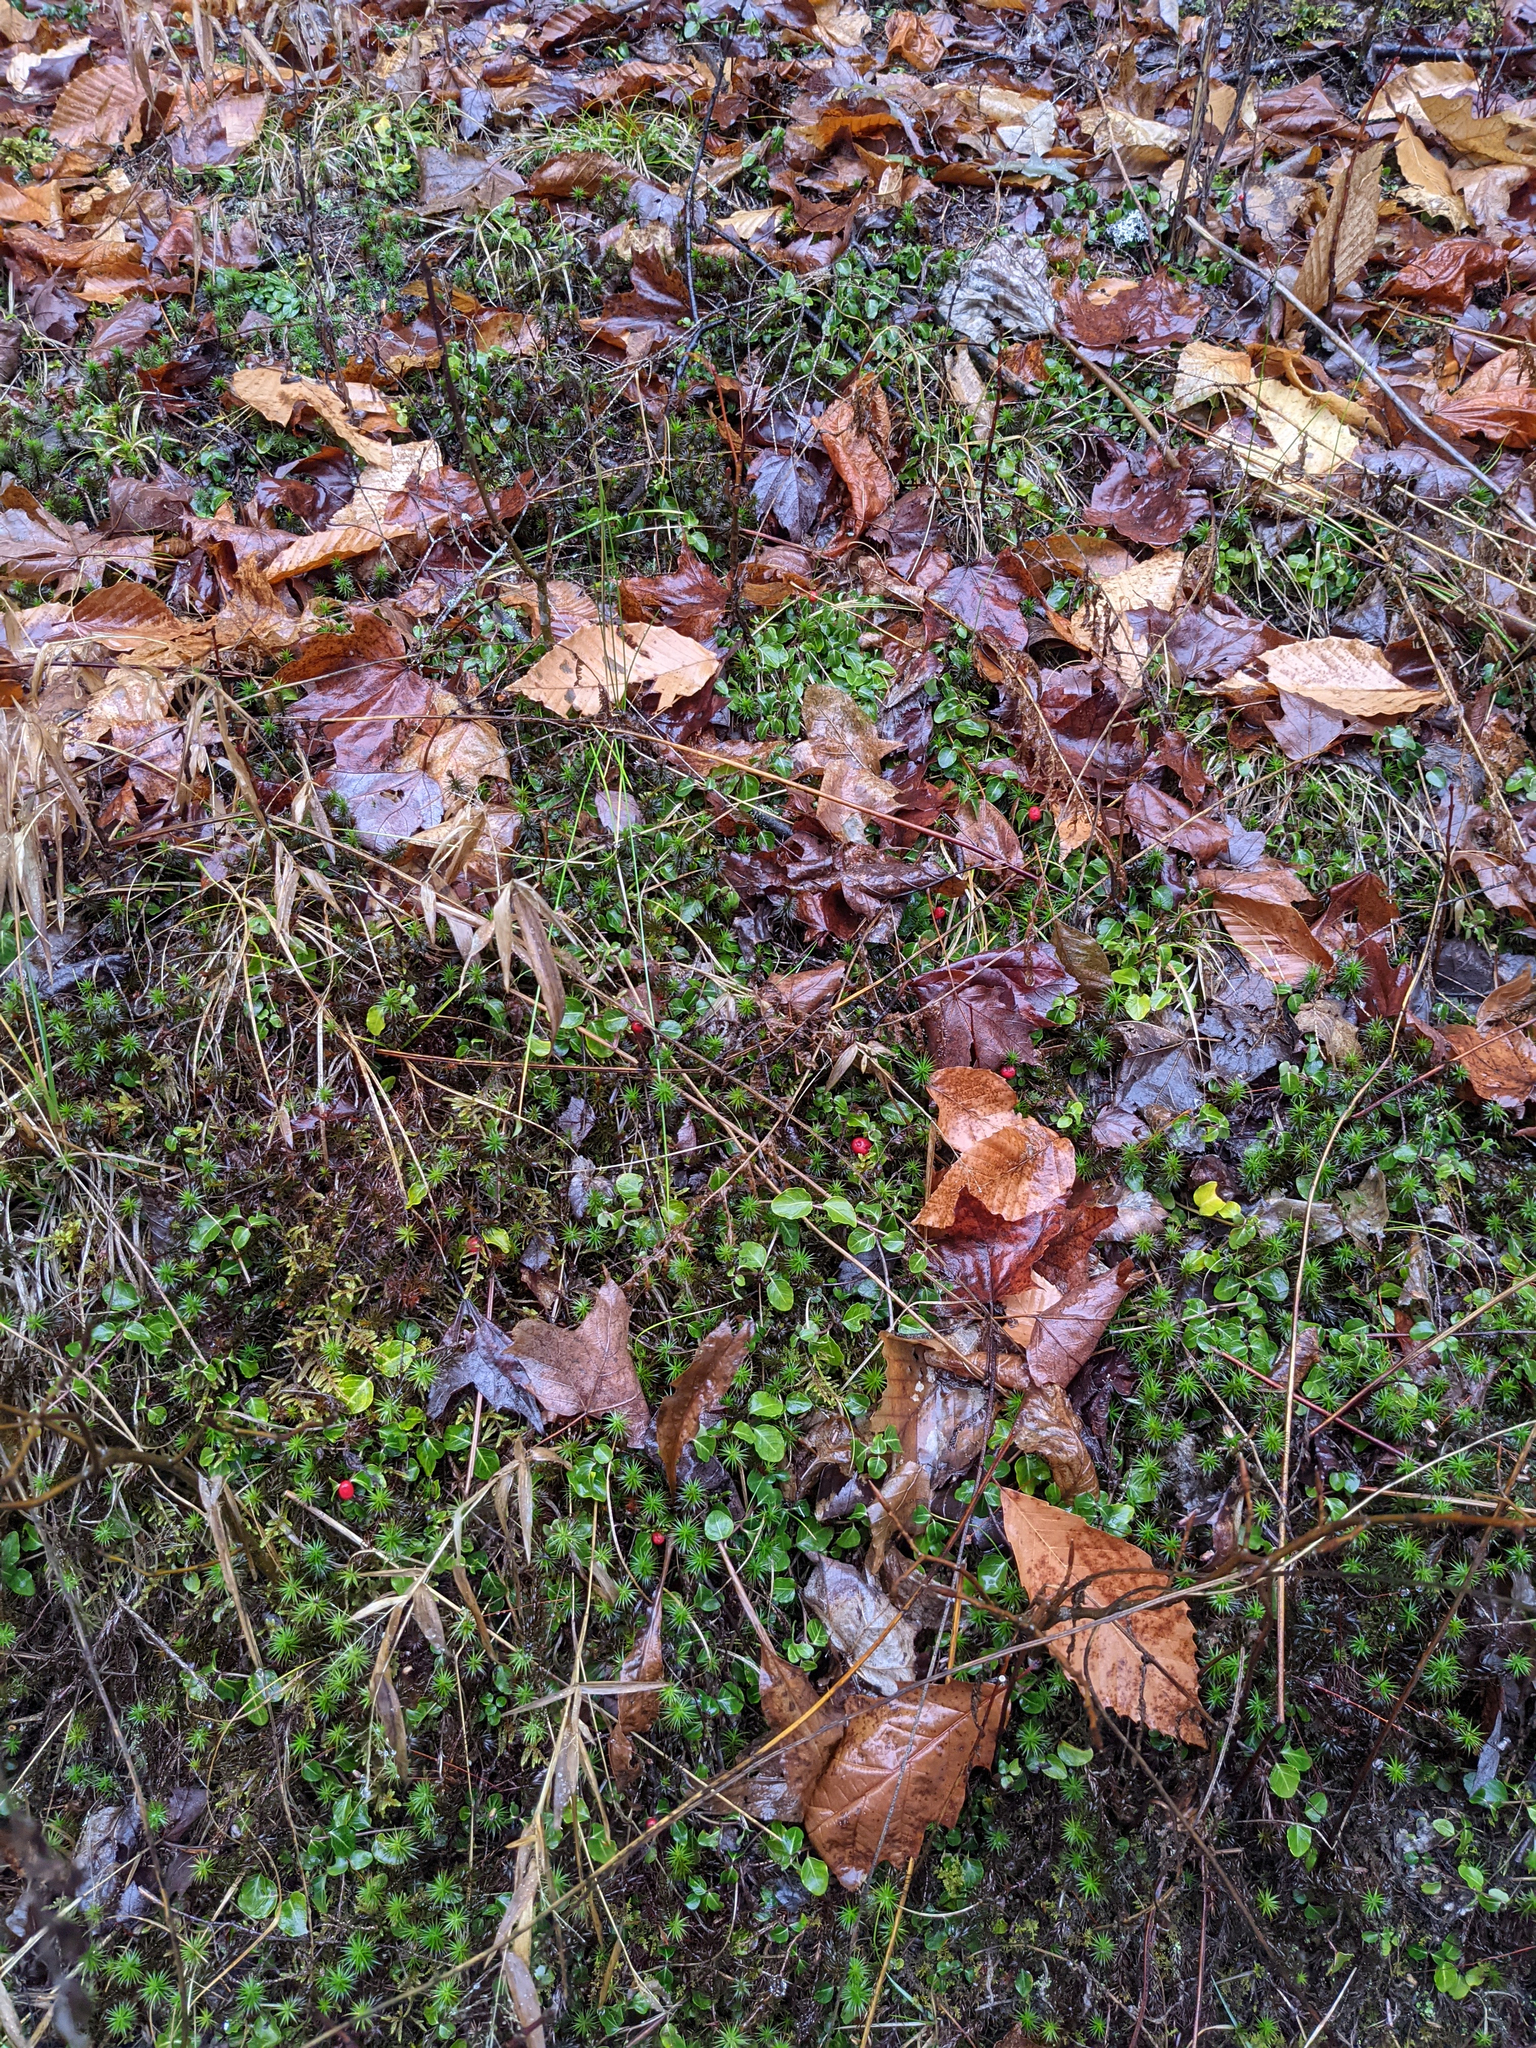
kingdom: Plantae
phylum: Tracheophyta
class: Magnoliopsida
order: Gentianales
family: Rubiaceae
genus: Mitchella
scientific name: Mitchella repens
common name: Partridge-berry
